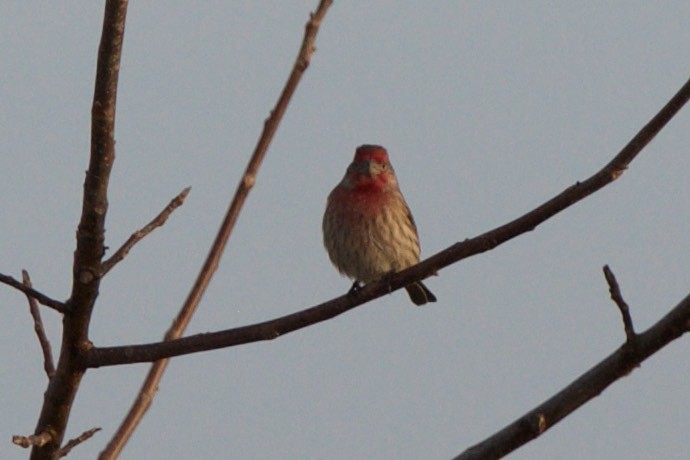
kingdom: Animalia
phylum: Chordata
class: Aves
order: Passeriformes
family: Fringillidae
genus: Haemorhous
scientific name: Haemorhous mexicanus
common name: House finch
